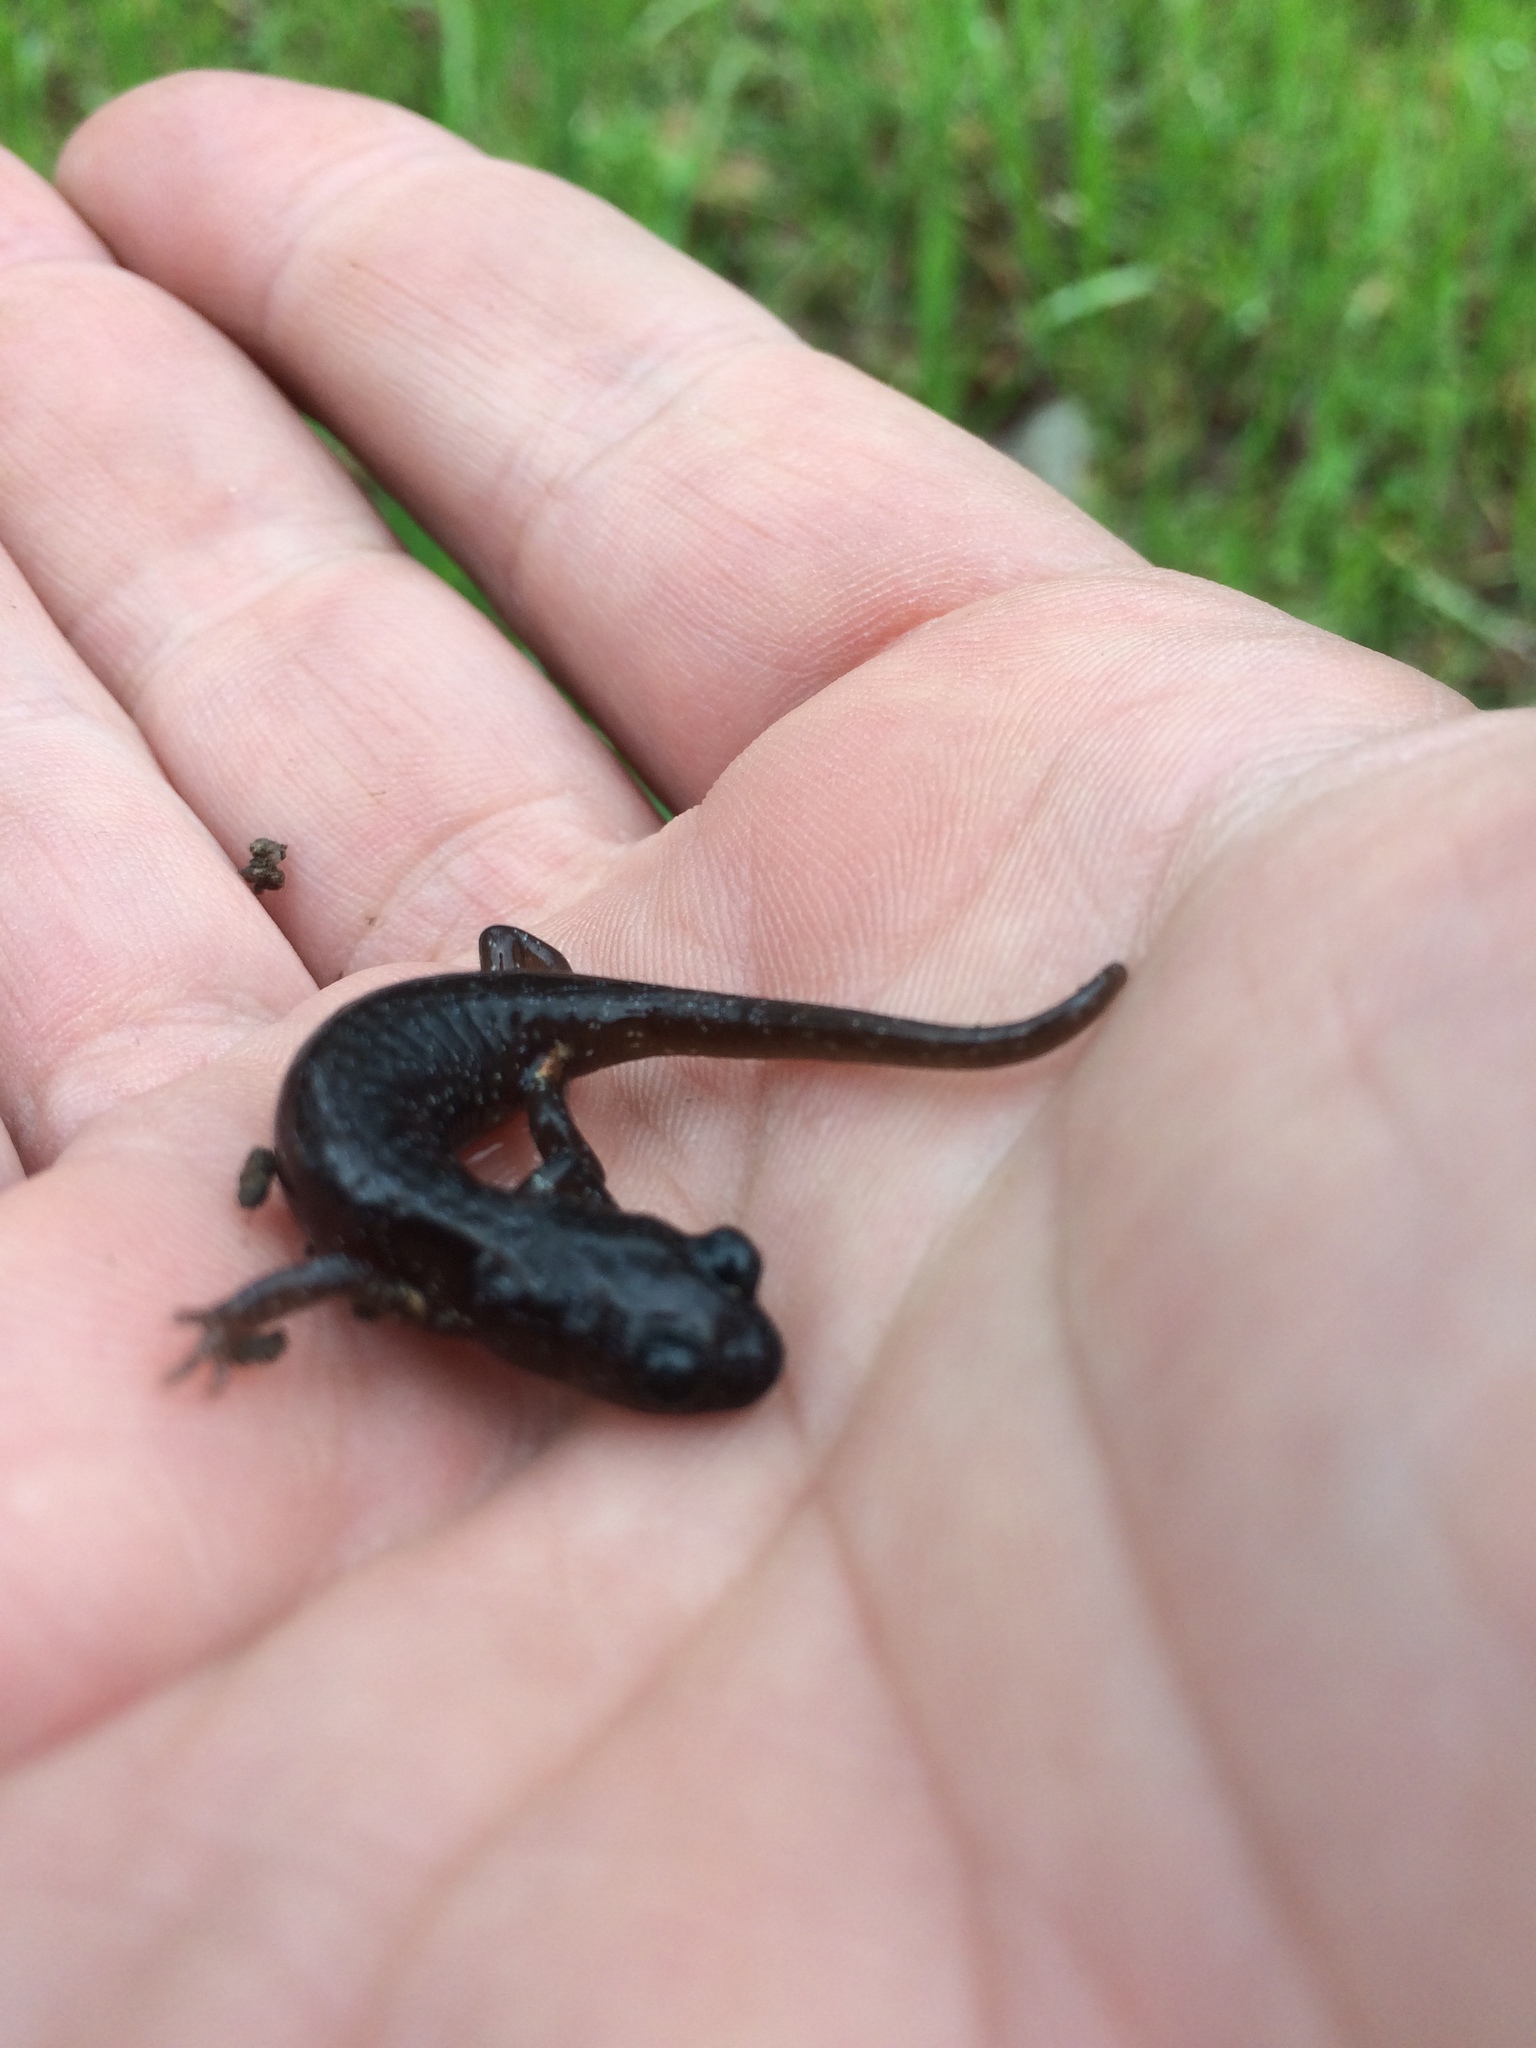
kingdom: Animalia
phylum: Chordata
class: Amphibia
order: Caudata
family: Plethodontidae
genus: Aneides
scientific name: Aneides lugubris
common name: Arboreal salamander
